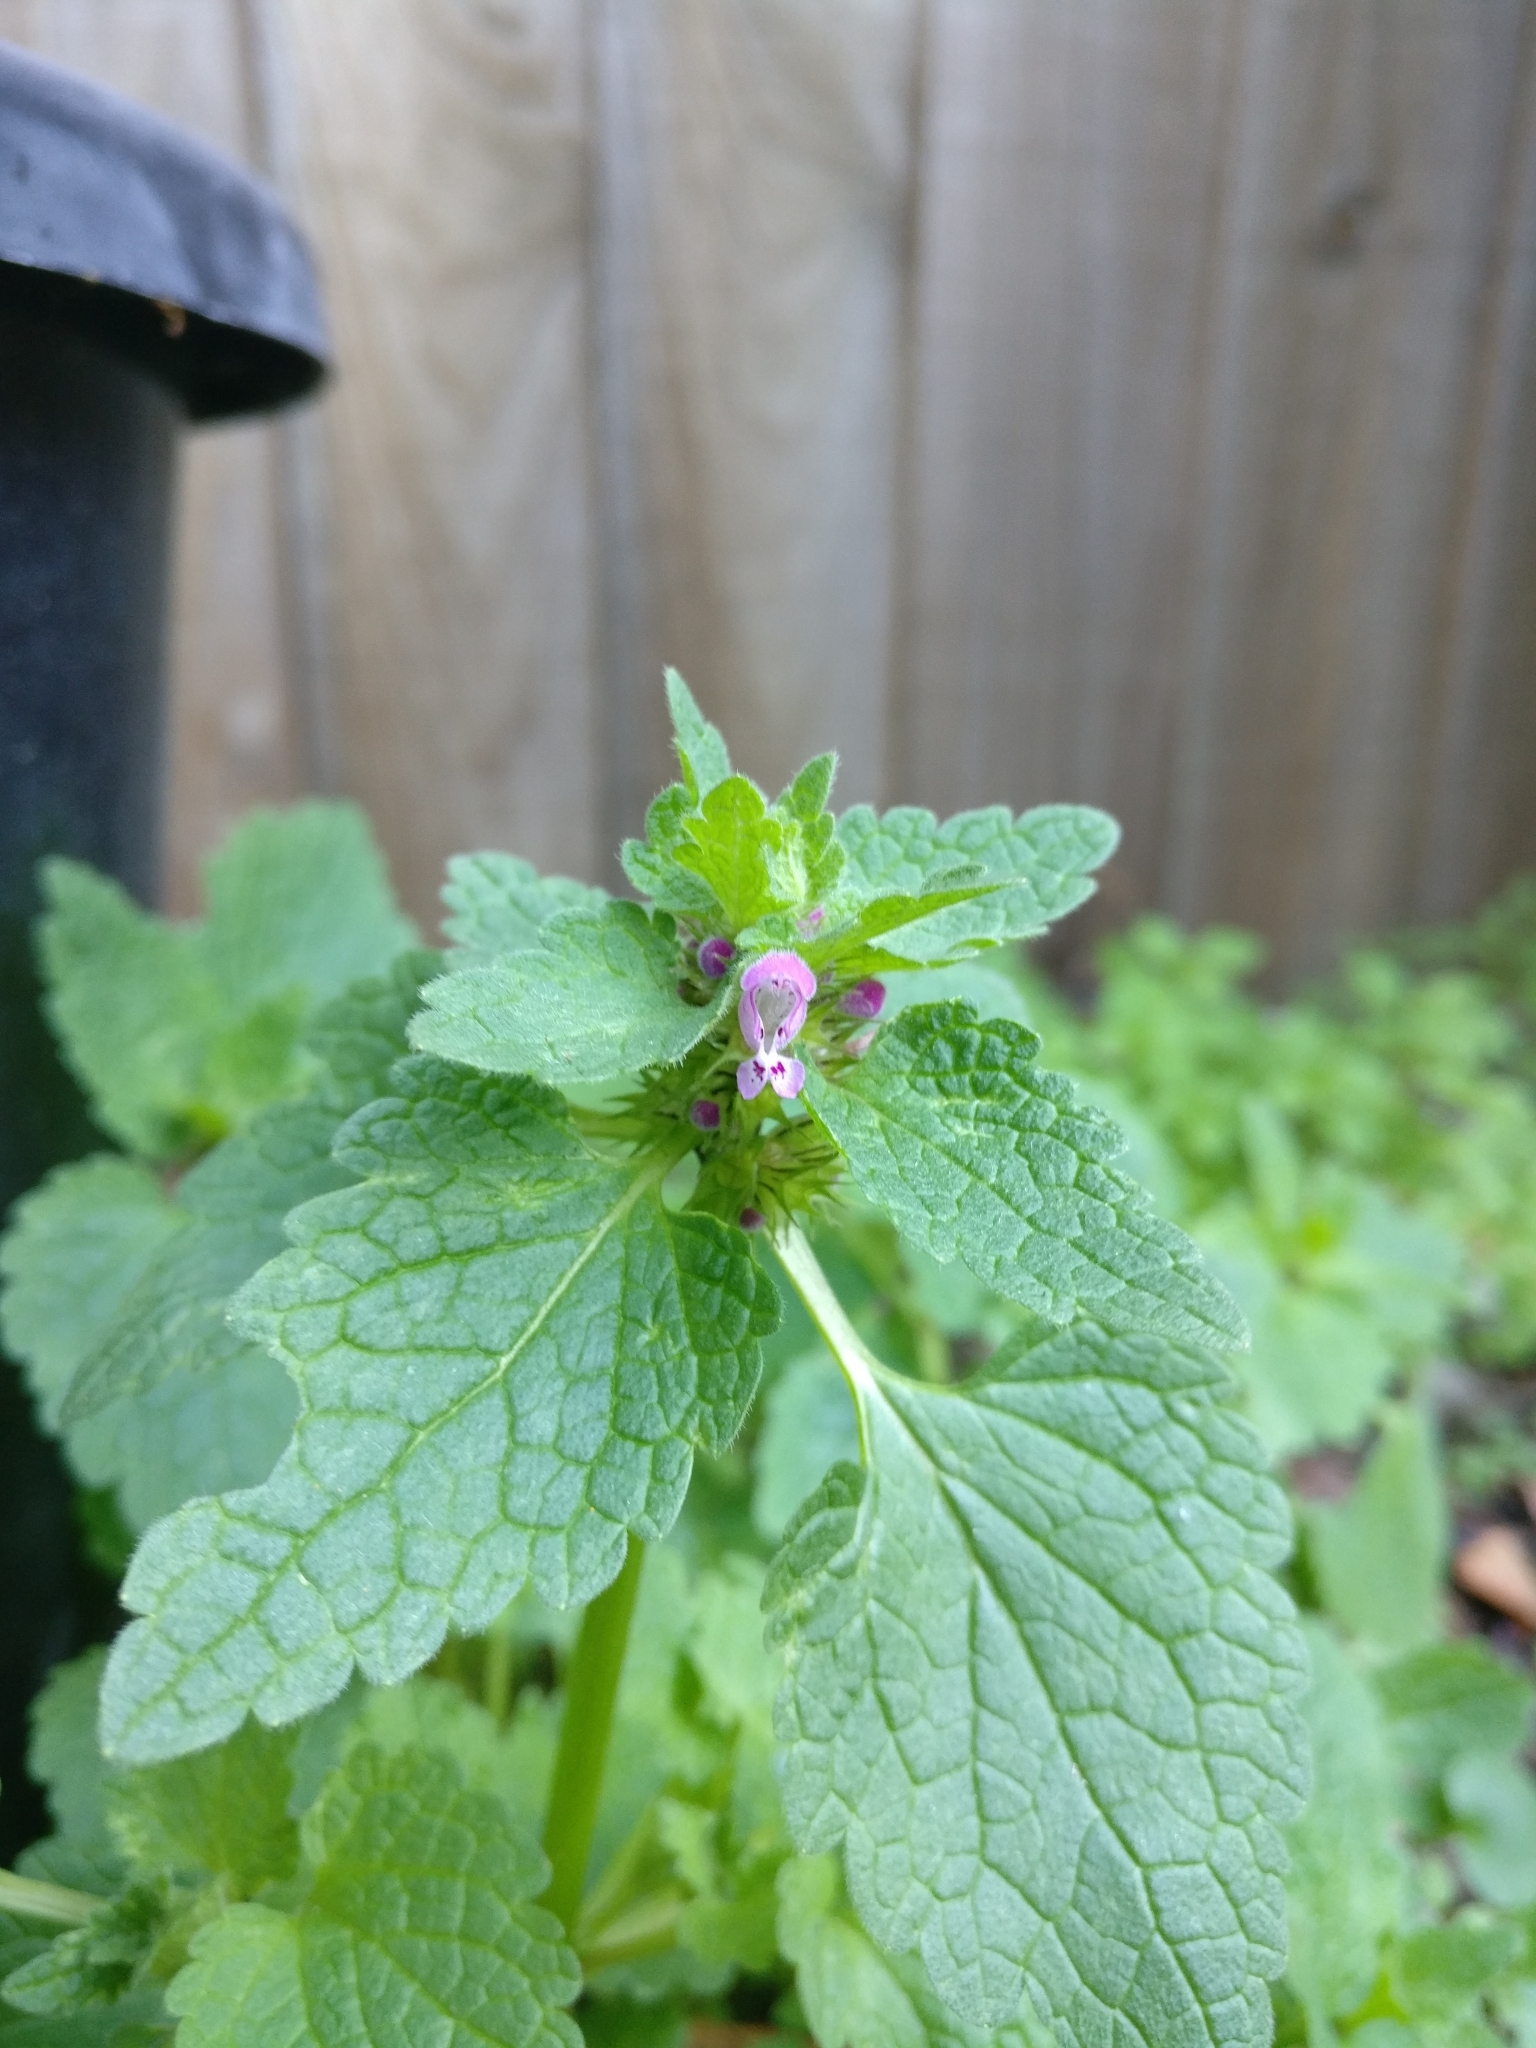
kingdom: Plantae
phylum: Tracheophyta
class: Magnoliopsida
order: Lamiales
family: Lamiaceae
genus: Lamium
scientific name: Lamium purpureum
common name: Red dead-nettle
